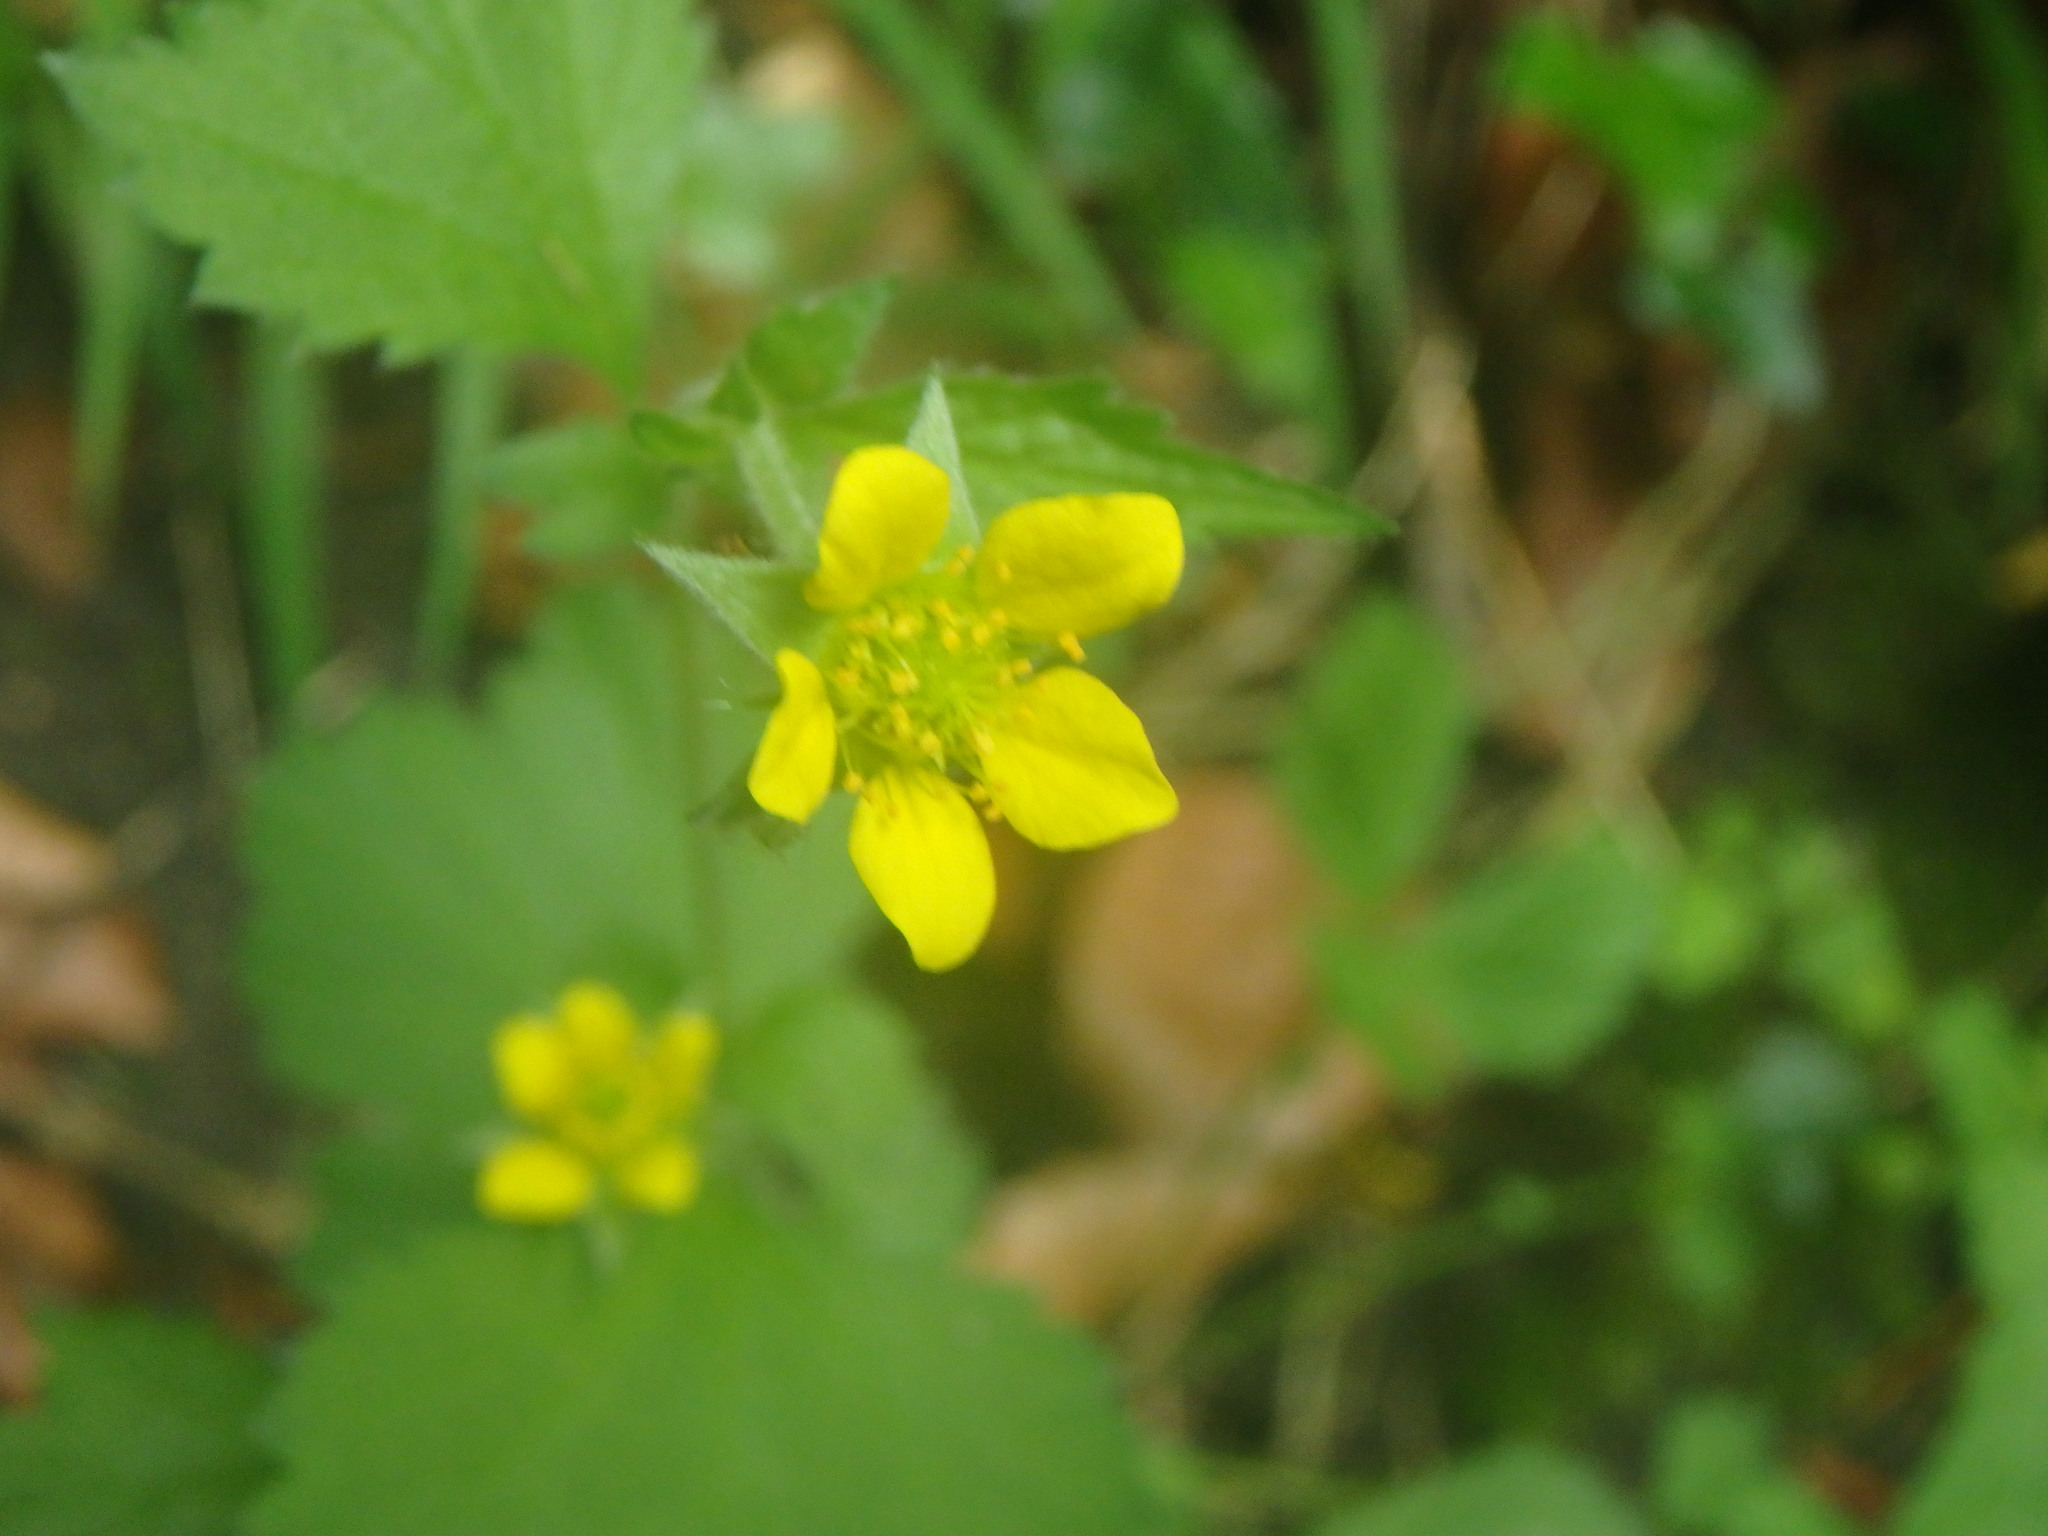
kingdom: Plantae
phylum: Tracheophyta
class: Magnoliopsida
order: Rosales
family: Rosaceae
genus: Geum
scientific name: Geum urbanum
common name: Wood avens
